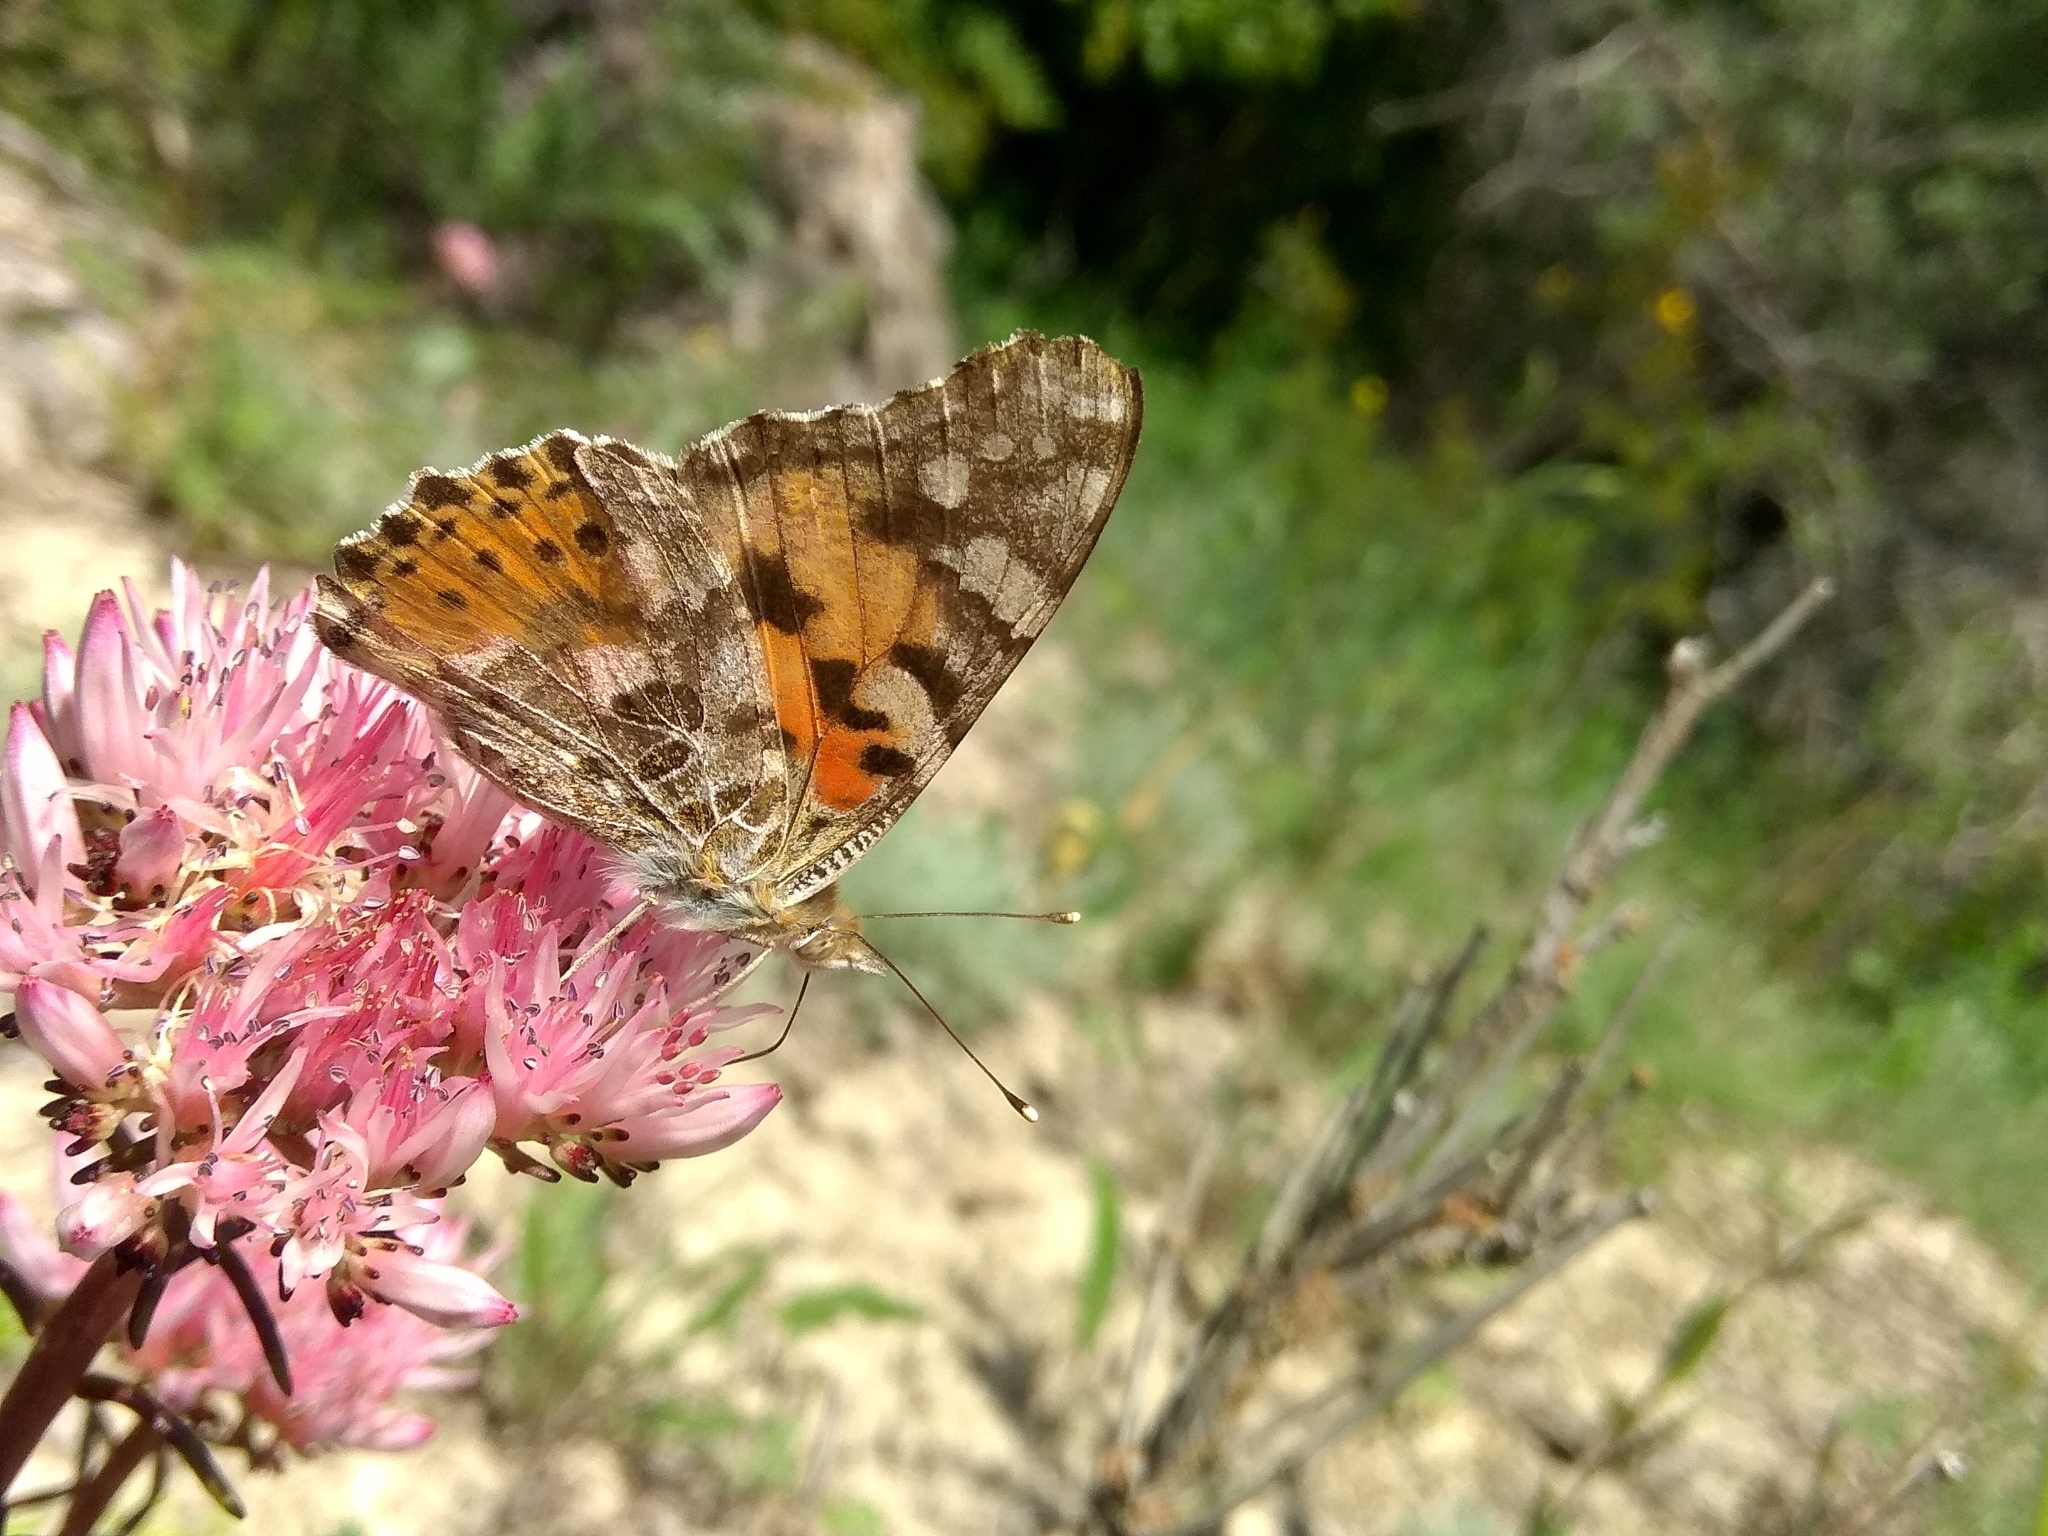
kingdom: Animalia
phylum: Arthropoda
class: Insecta
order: Lepidoptera
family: Nymphalidae
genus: Vanessa
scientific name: Vanessa cardui
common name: Painted lady
